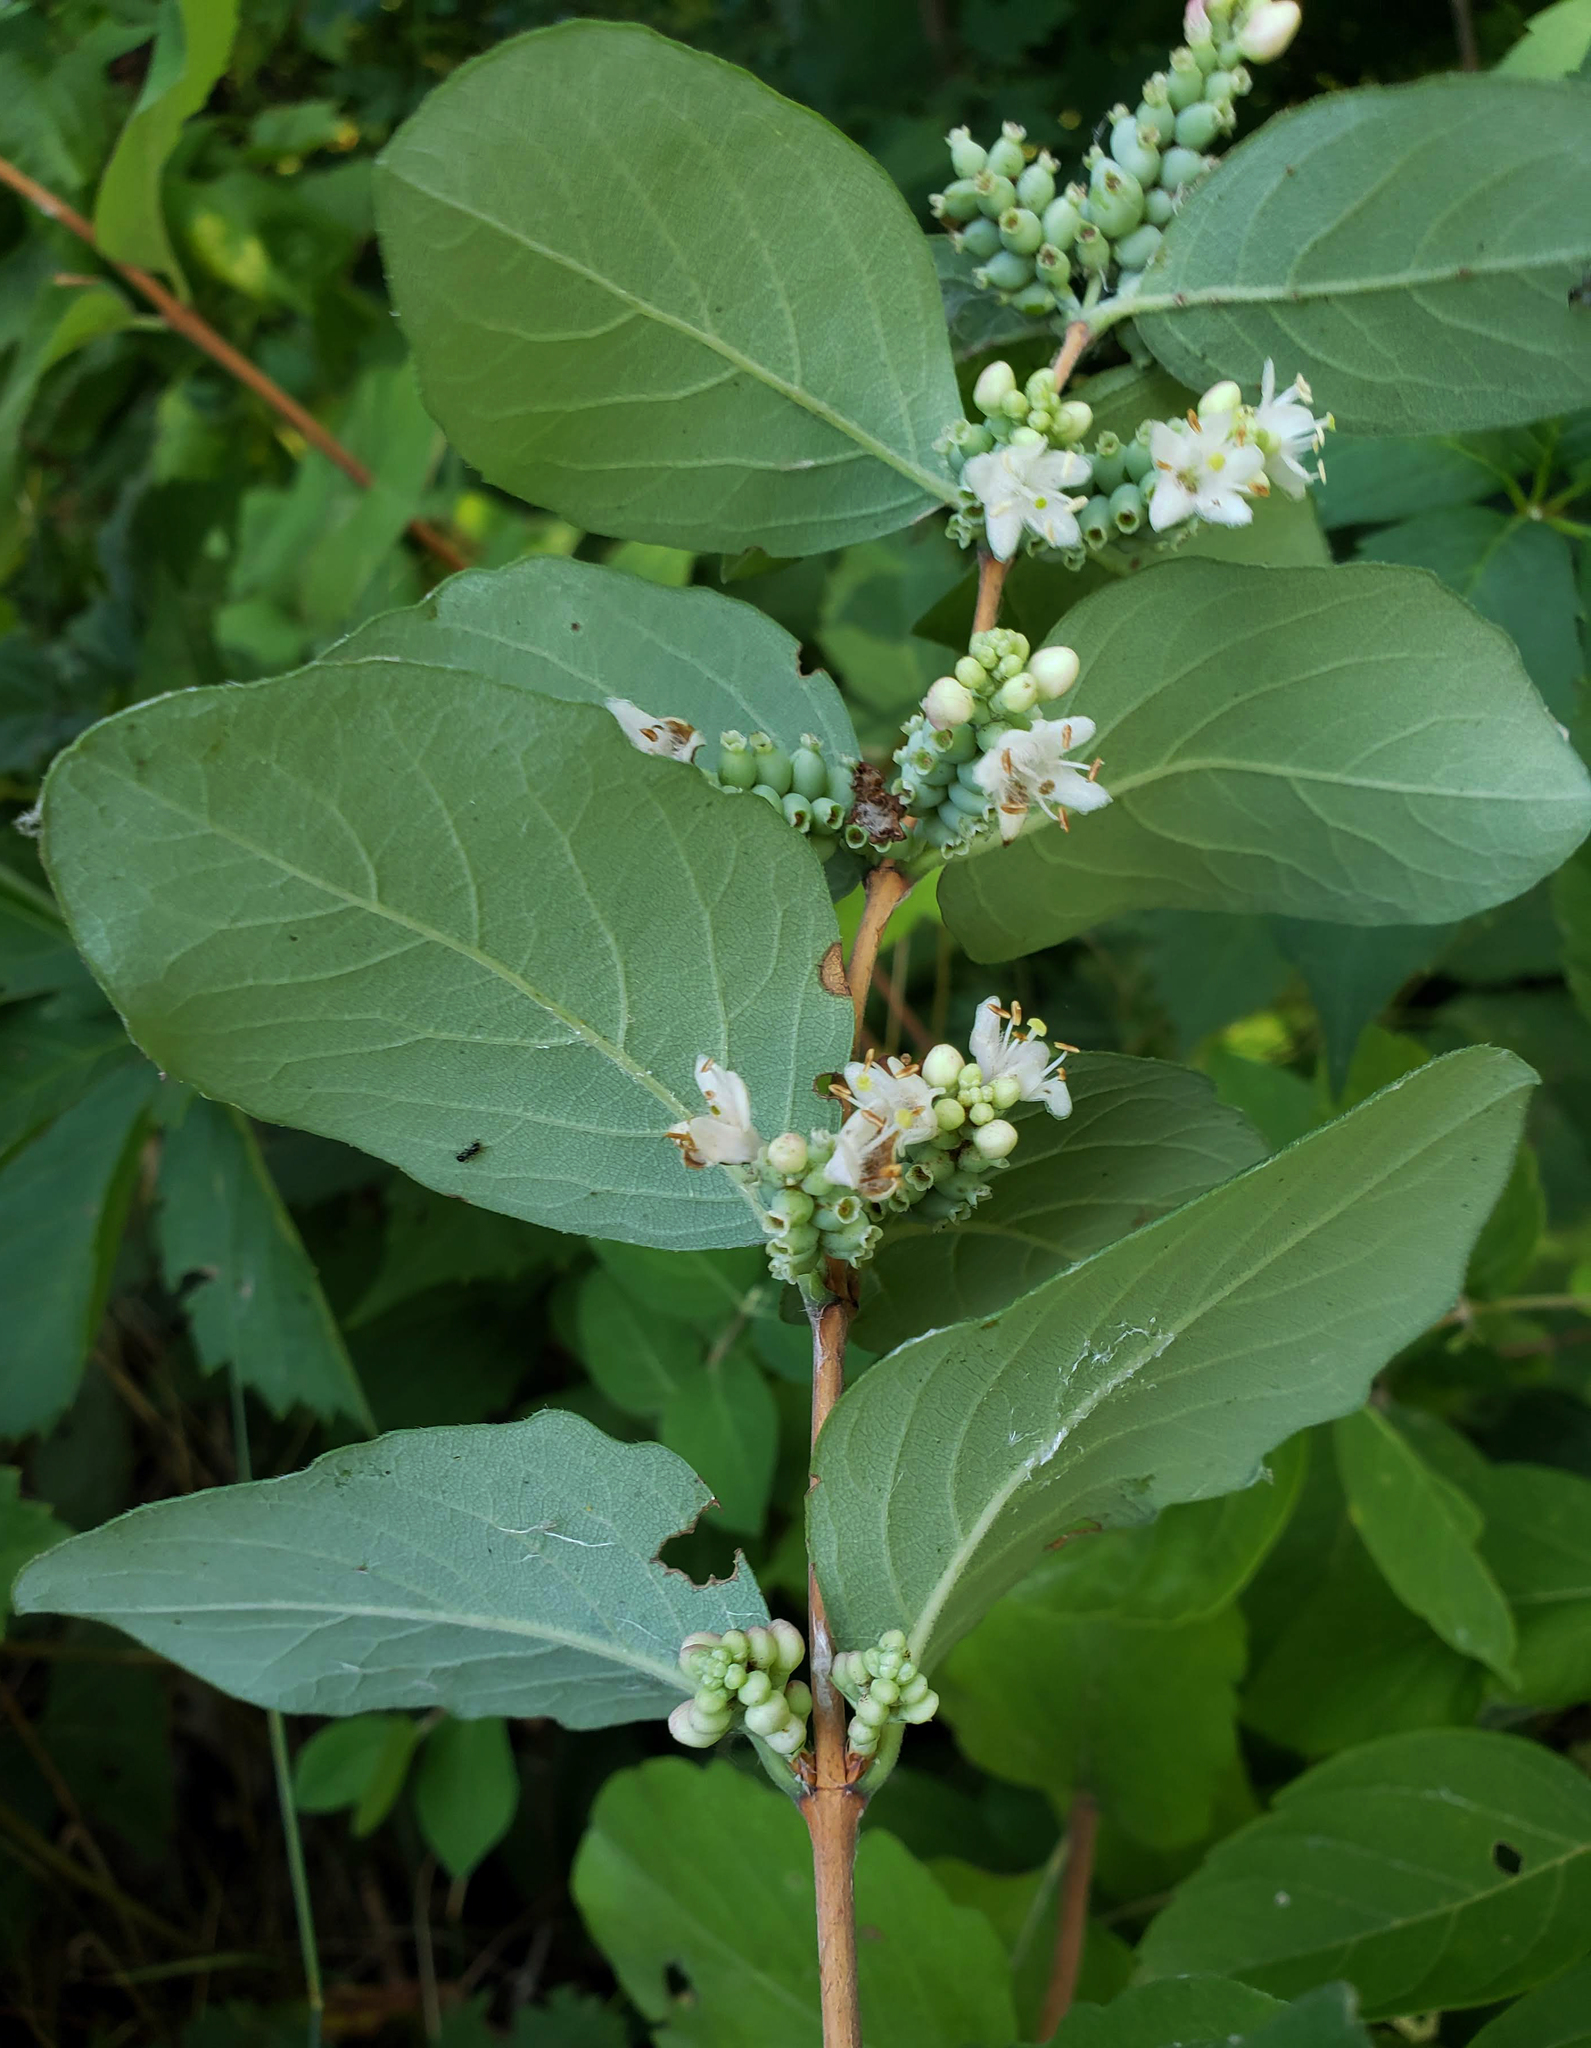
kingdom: Plantae
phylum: Tracheophyta
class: Magnoliopsida
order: Dipsacales
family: Caprifoliaceae
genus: Symphoricarpos
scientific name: Symphoricarpos occidentalis
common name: Wolfberry
